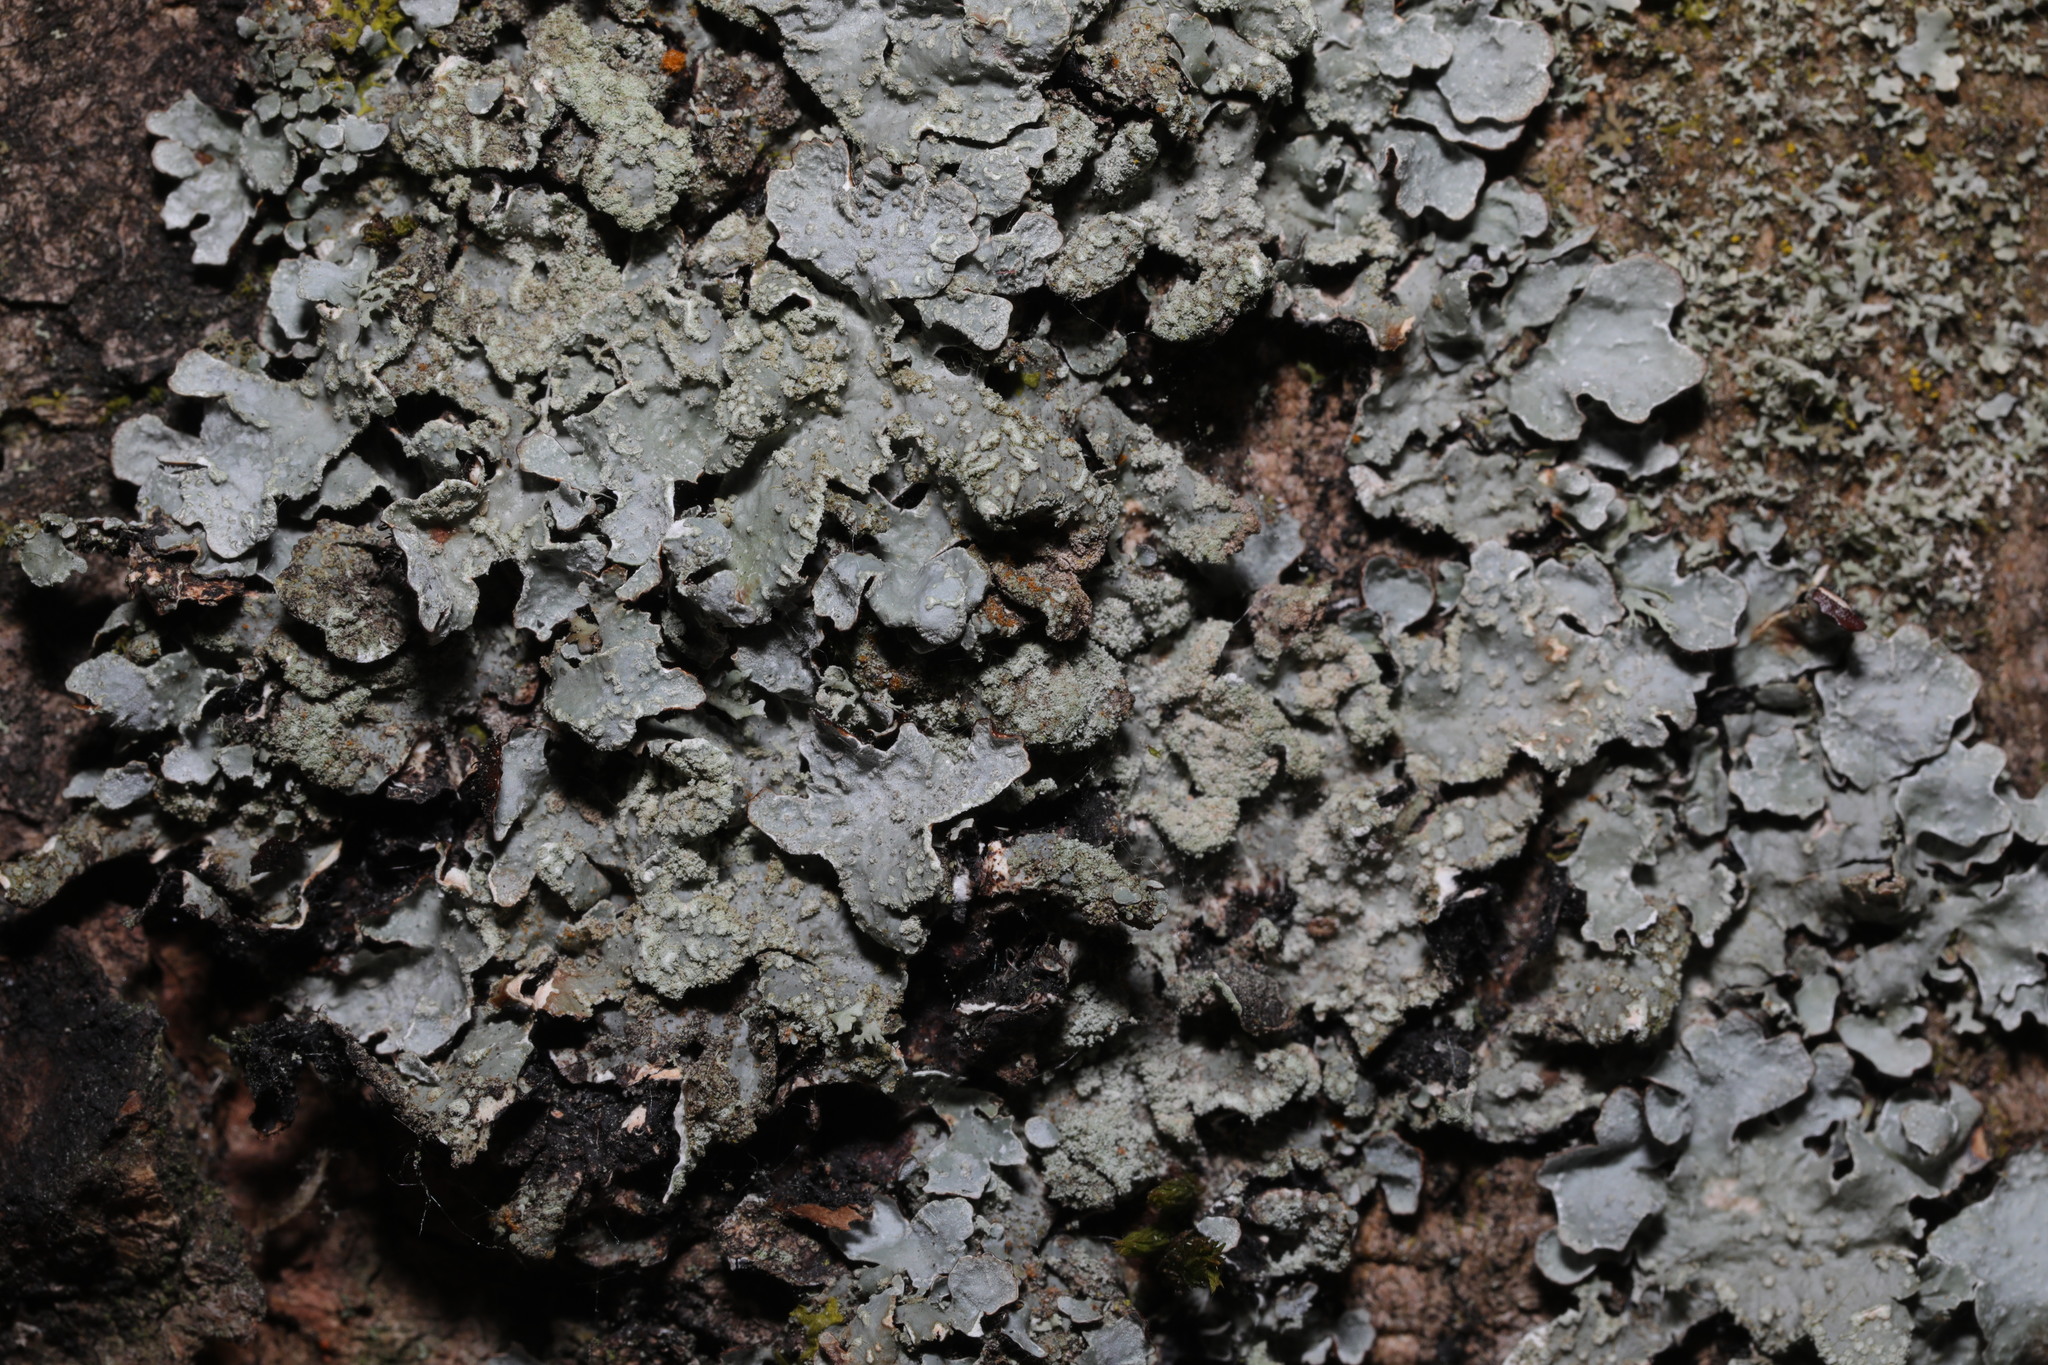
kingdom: Fungi
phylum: Ascomycota
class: Lecanoromycetes
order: Lecanorales
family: Parmeliaceae
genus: Parmelia
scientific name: Parmelia sulcata
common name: Netted shield lichen
